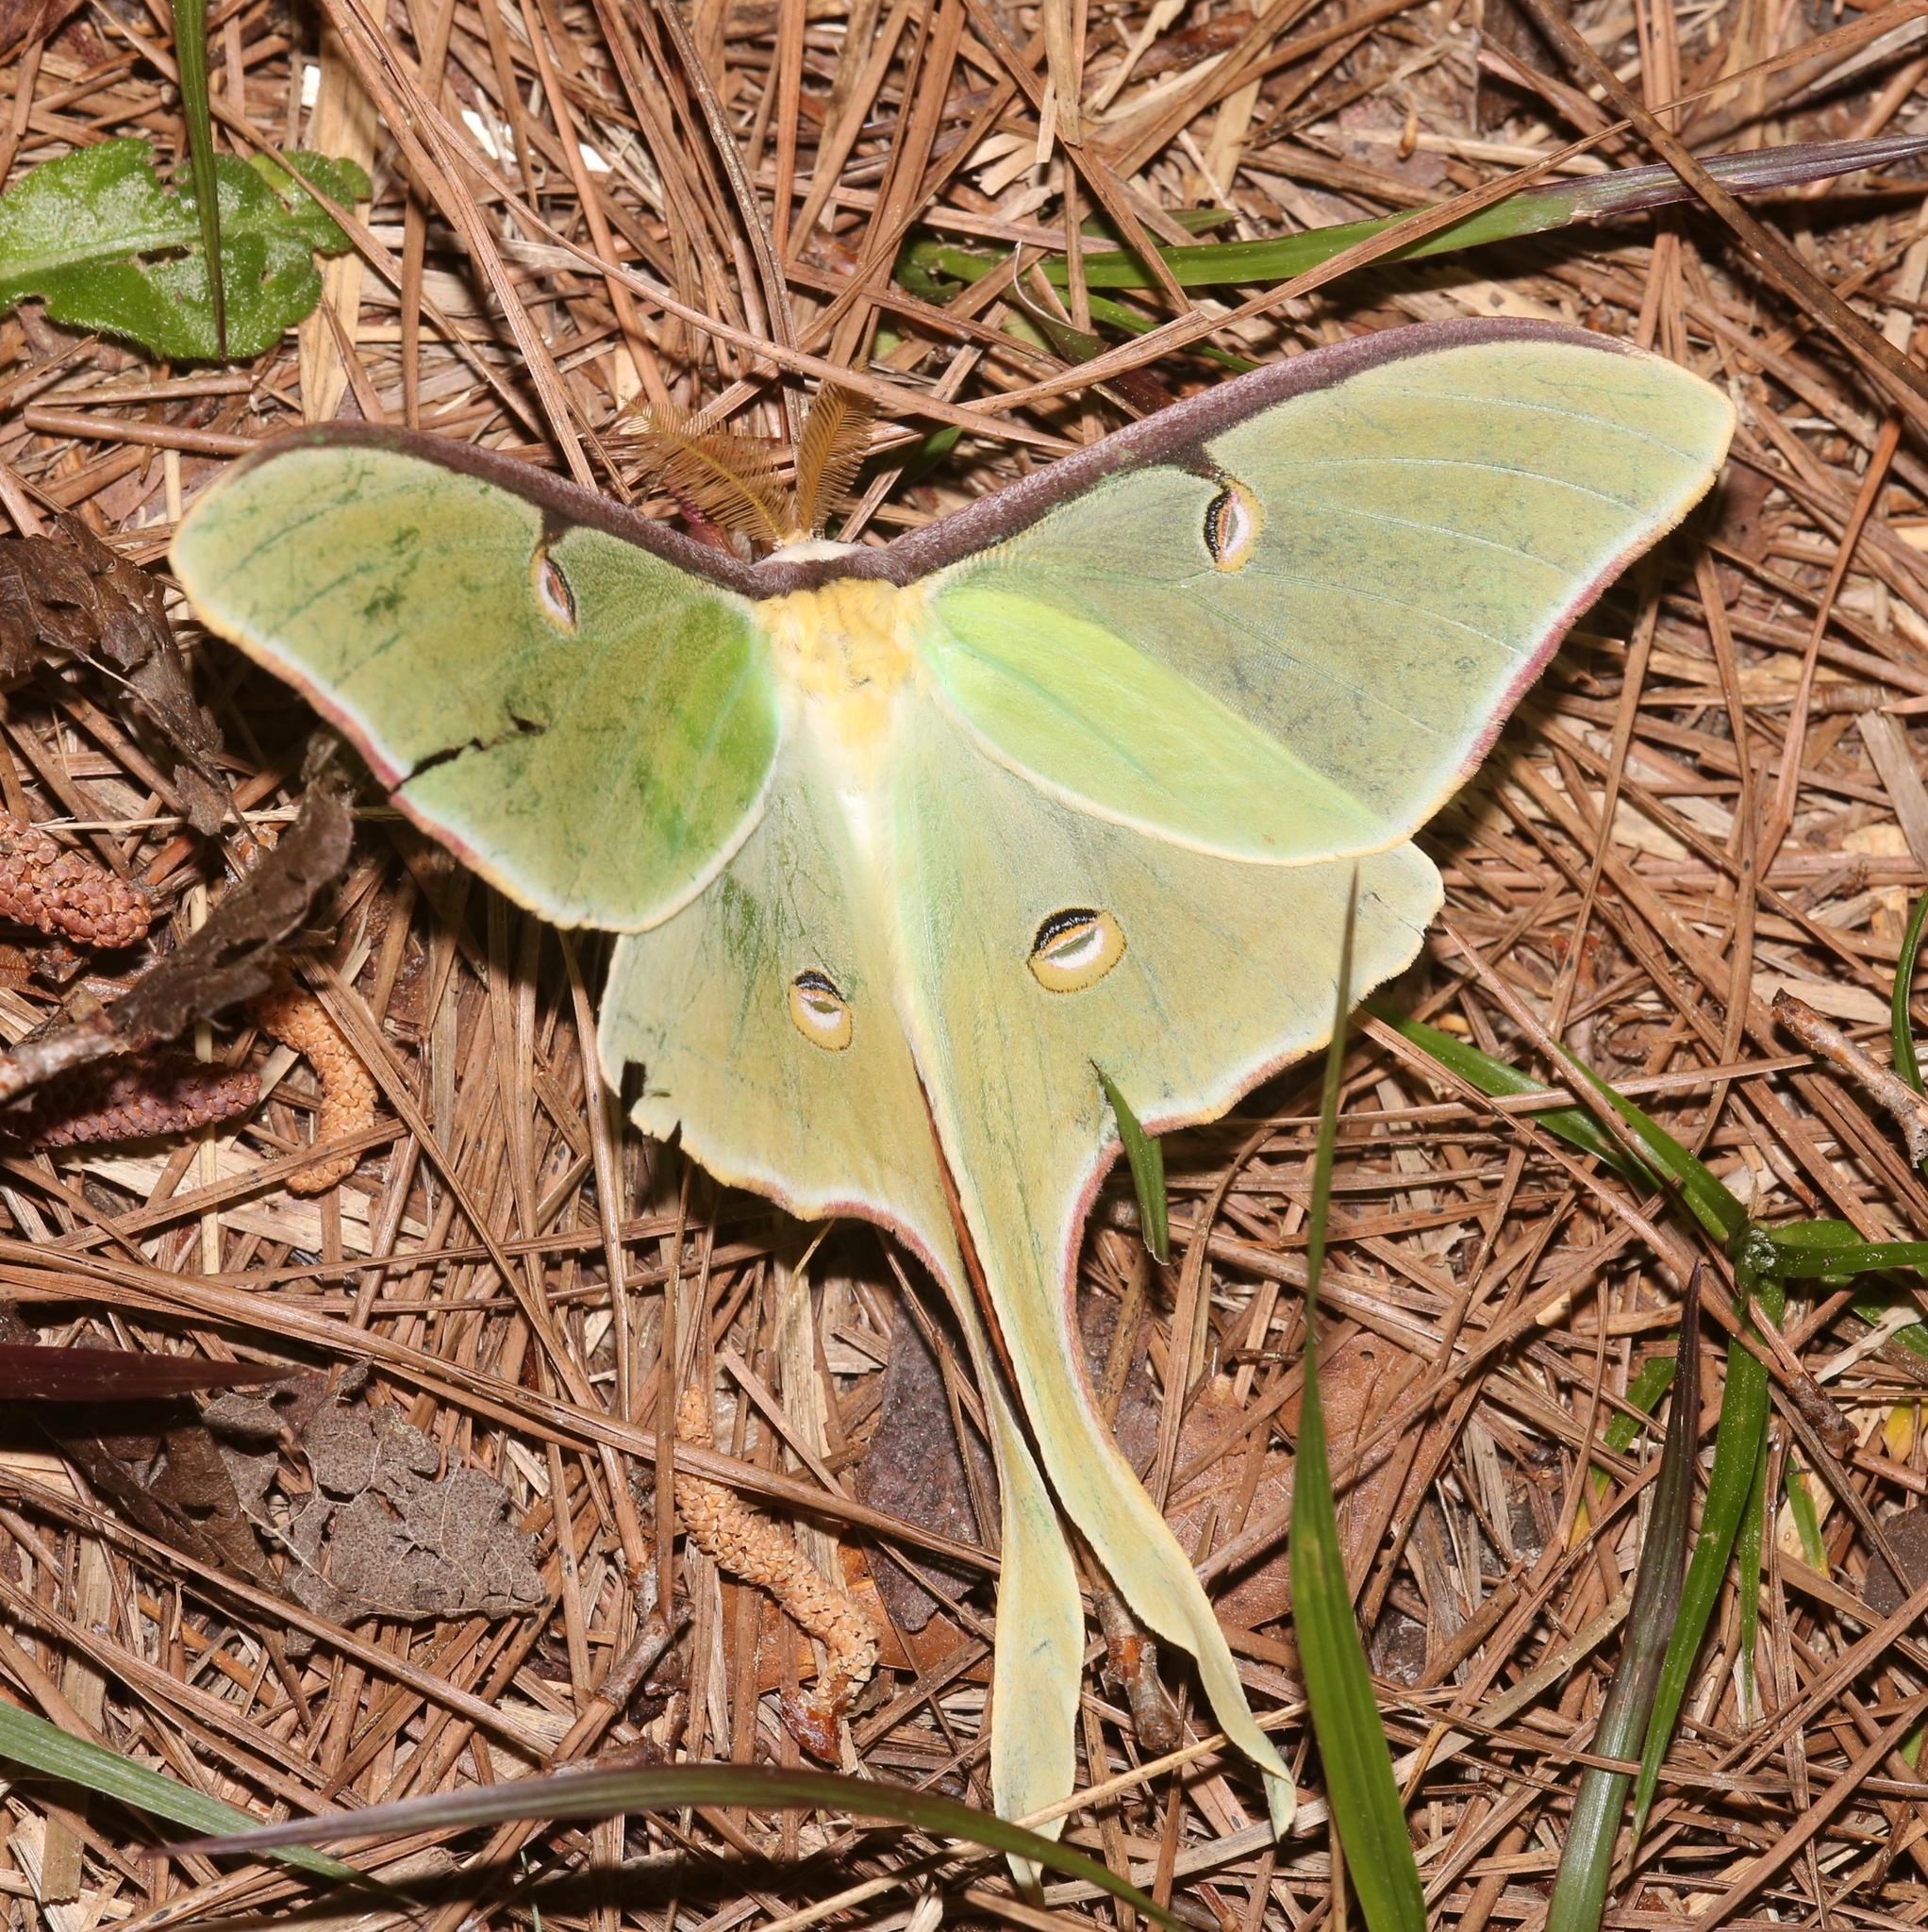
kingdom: Animalia
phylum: Arthropoda
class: Insecta
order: Lepidoptera
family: Saturniidae
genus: Actias
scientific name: Actias luna
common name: Luna moth
